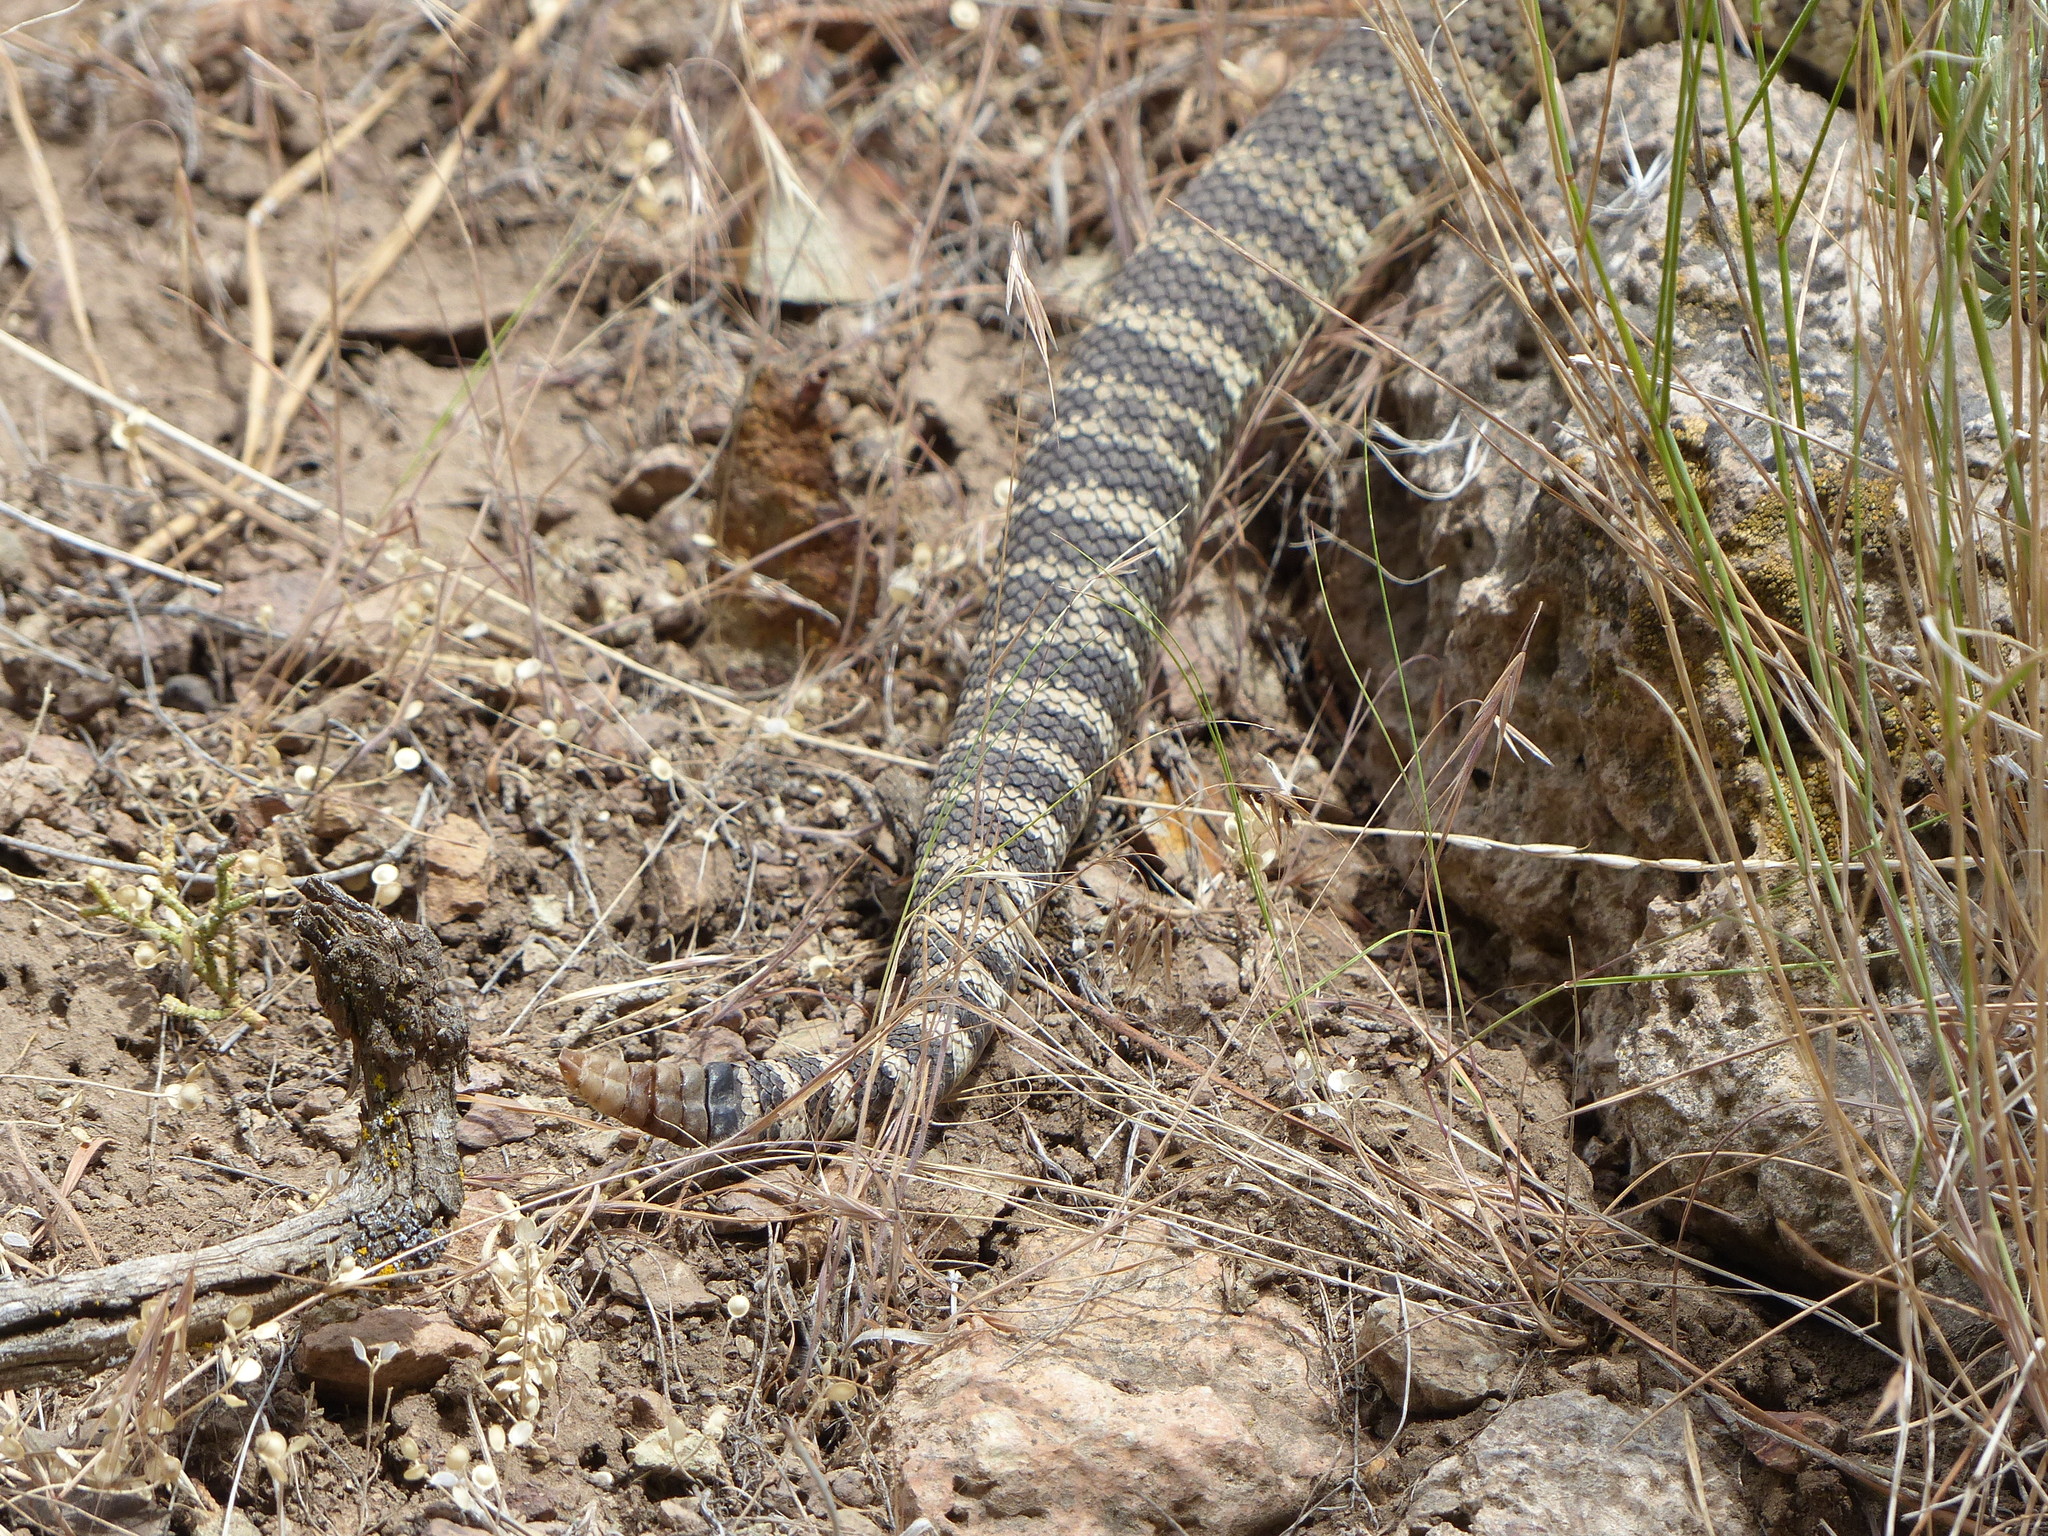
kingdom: Animalia
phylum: Chordata
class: Squamata
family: Viperidae
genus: Crotalus
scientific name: Crotalus oreganus
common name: Abyssus
